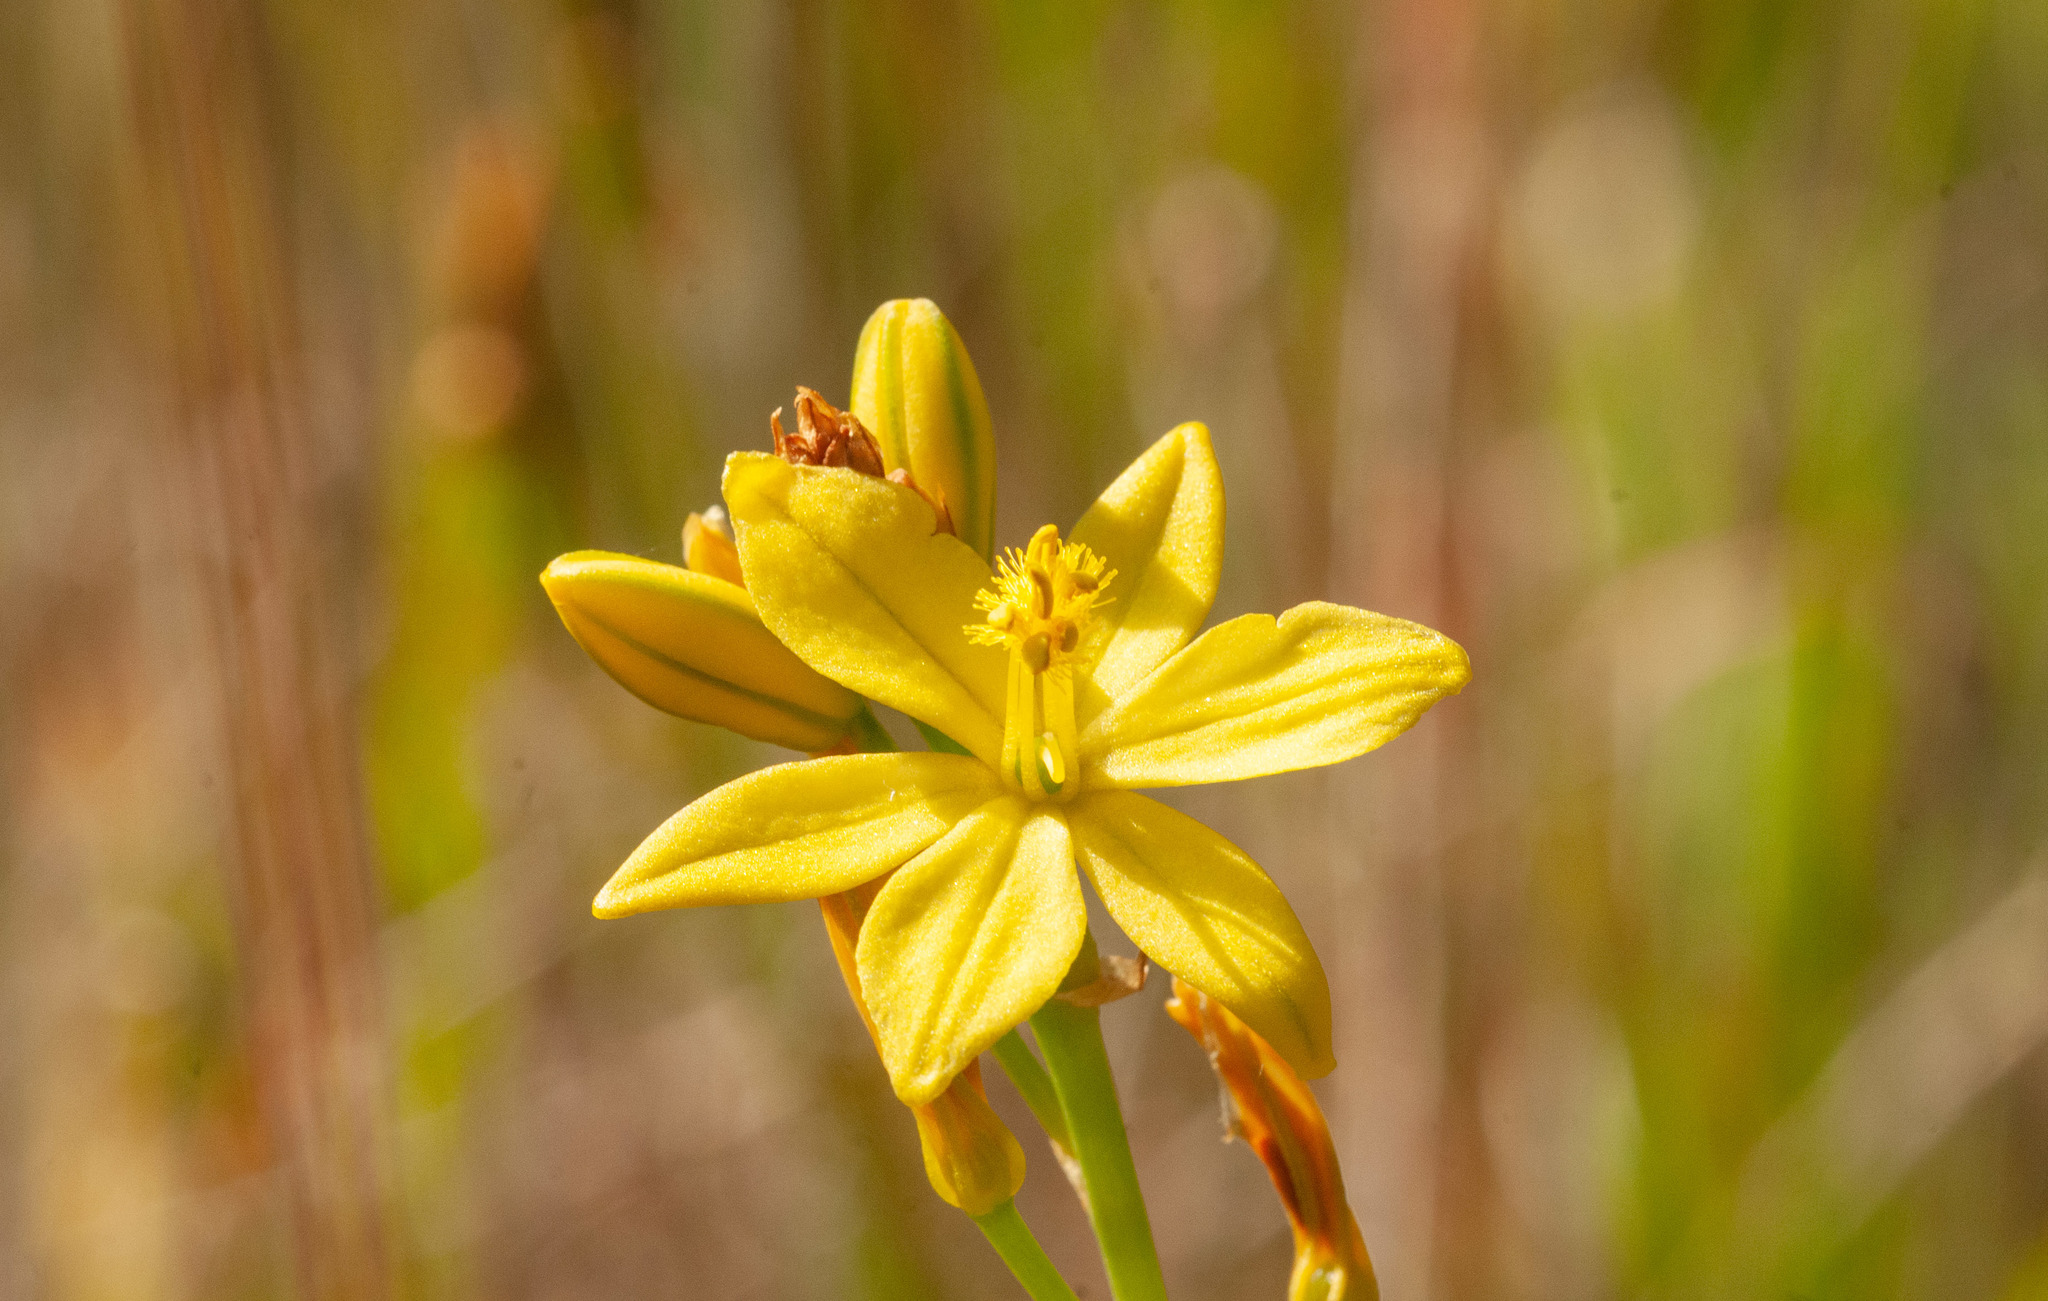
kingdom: Plantae
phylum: Tracheophyta
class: Liliopsida
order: Asparagales
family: Asphodelaceae
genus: Bulbine
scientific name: Bulbine bulbosa
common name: Golden-lily
